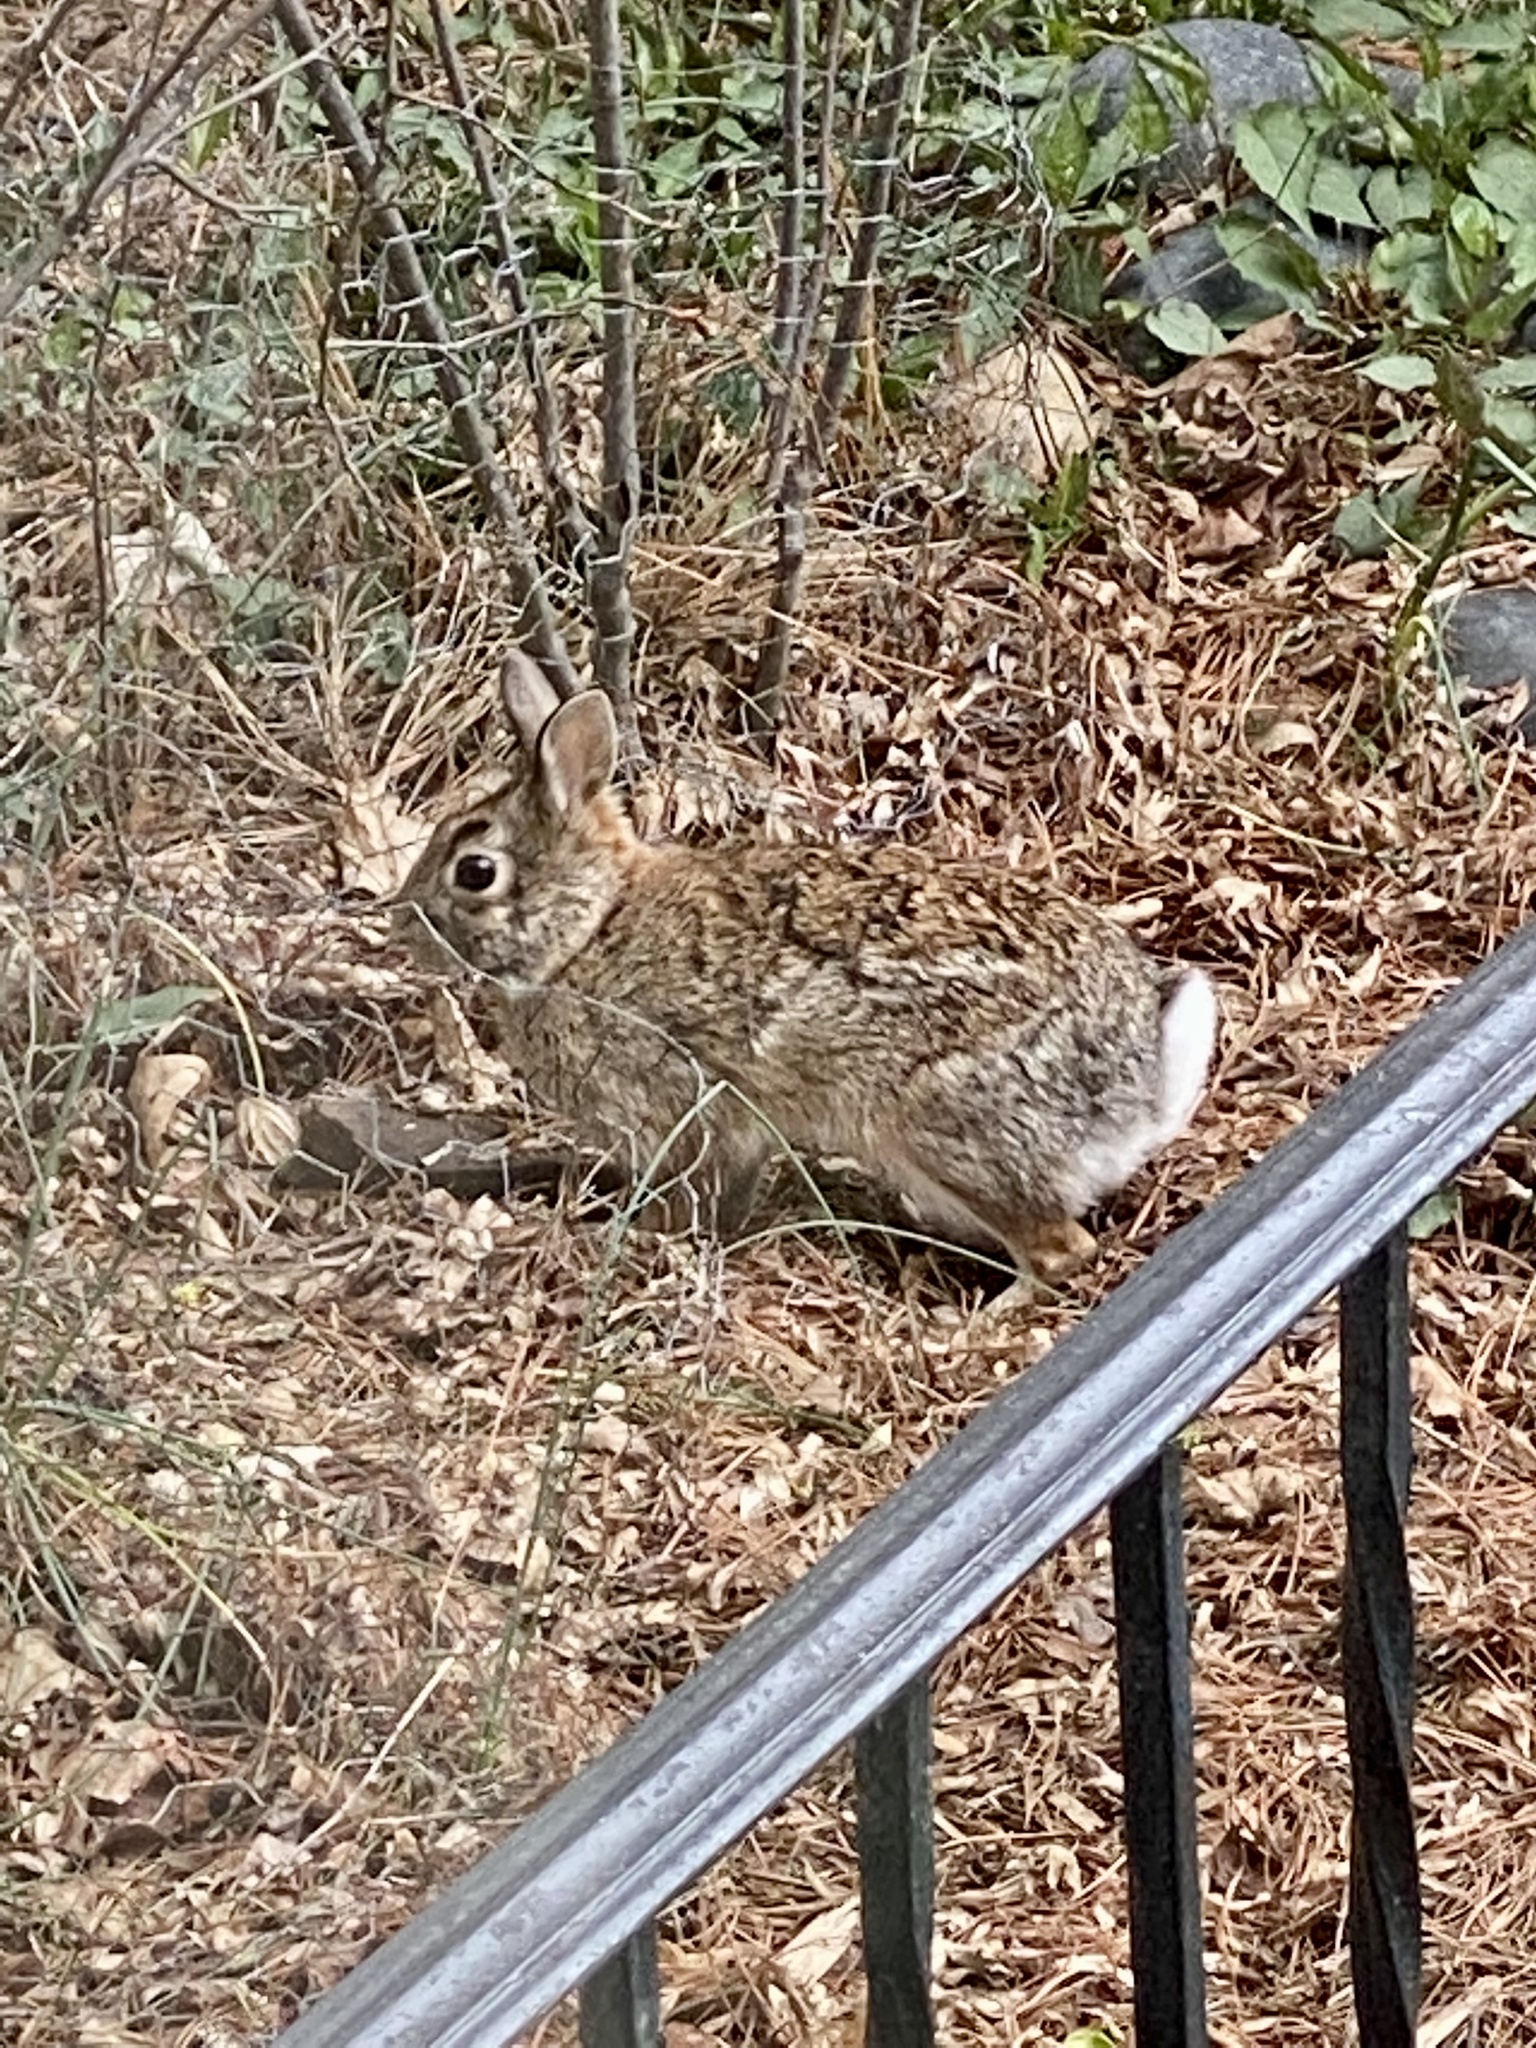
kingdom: Animalia
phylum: Chordata
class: Mammalia
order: Lagomorpha
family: Leporidae
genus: Sylvilagus
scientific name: Sylvilagus floridanus
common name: Eastern cottontail
